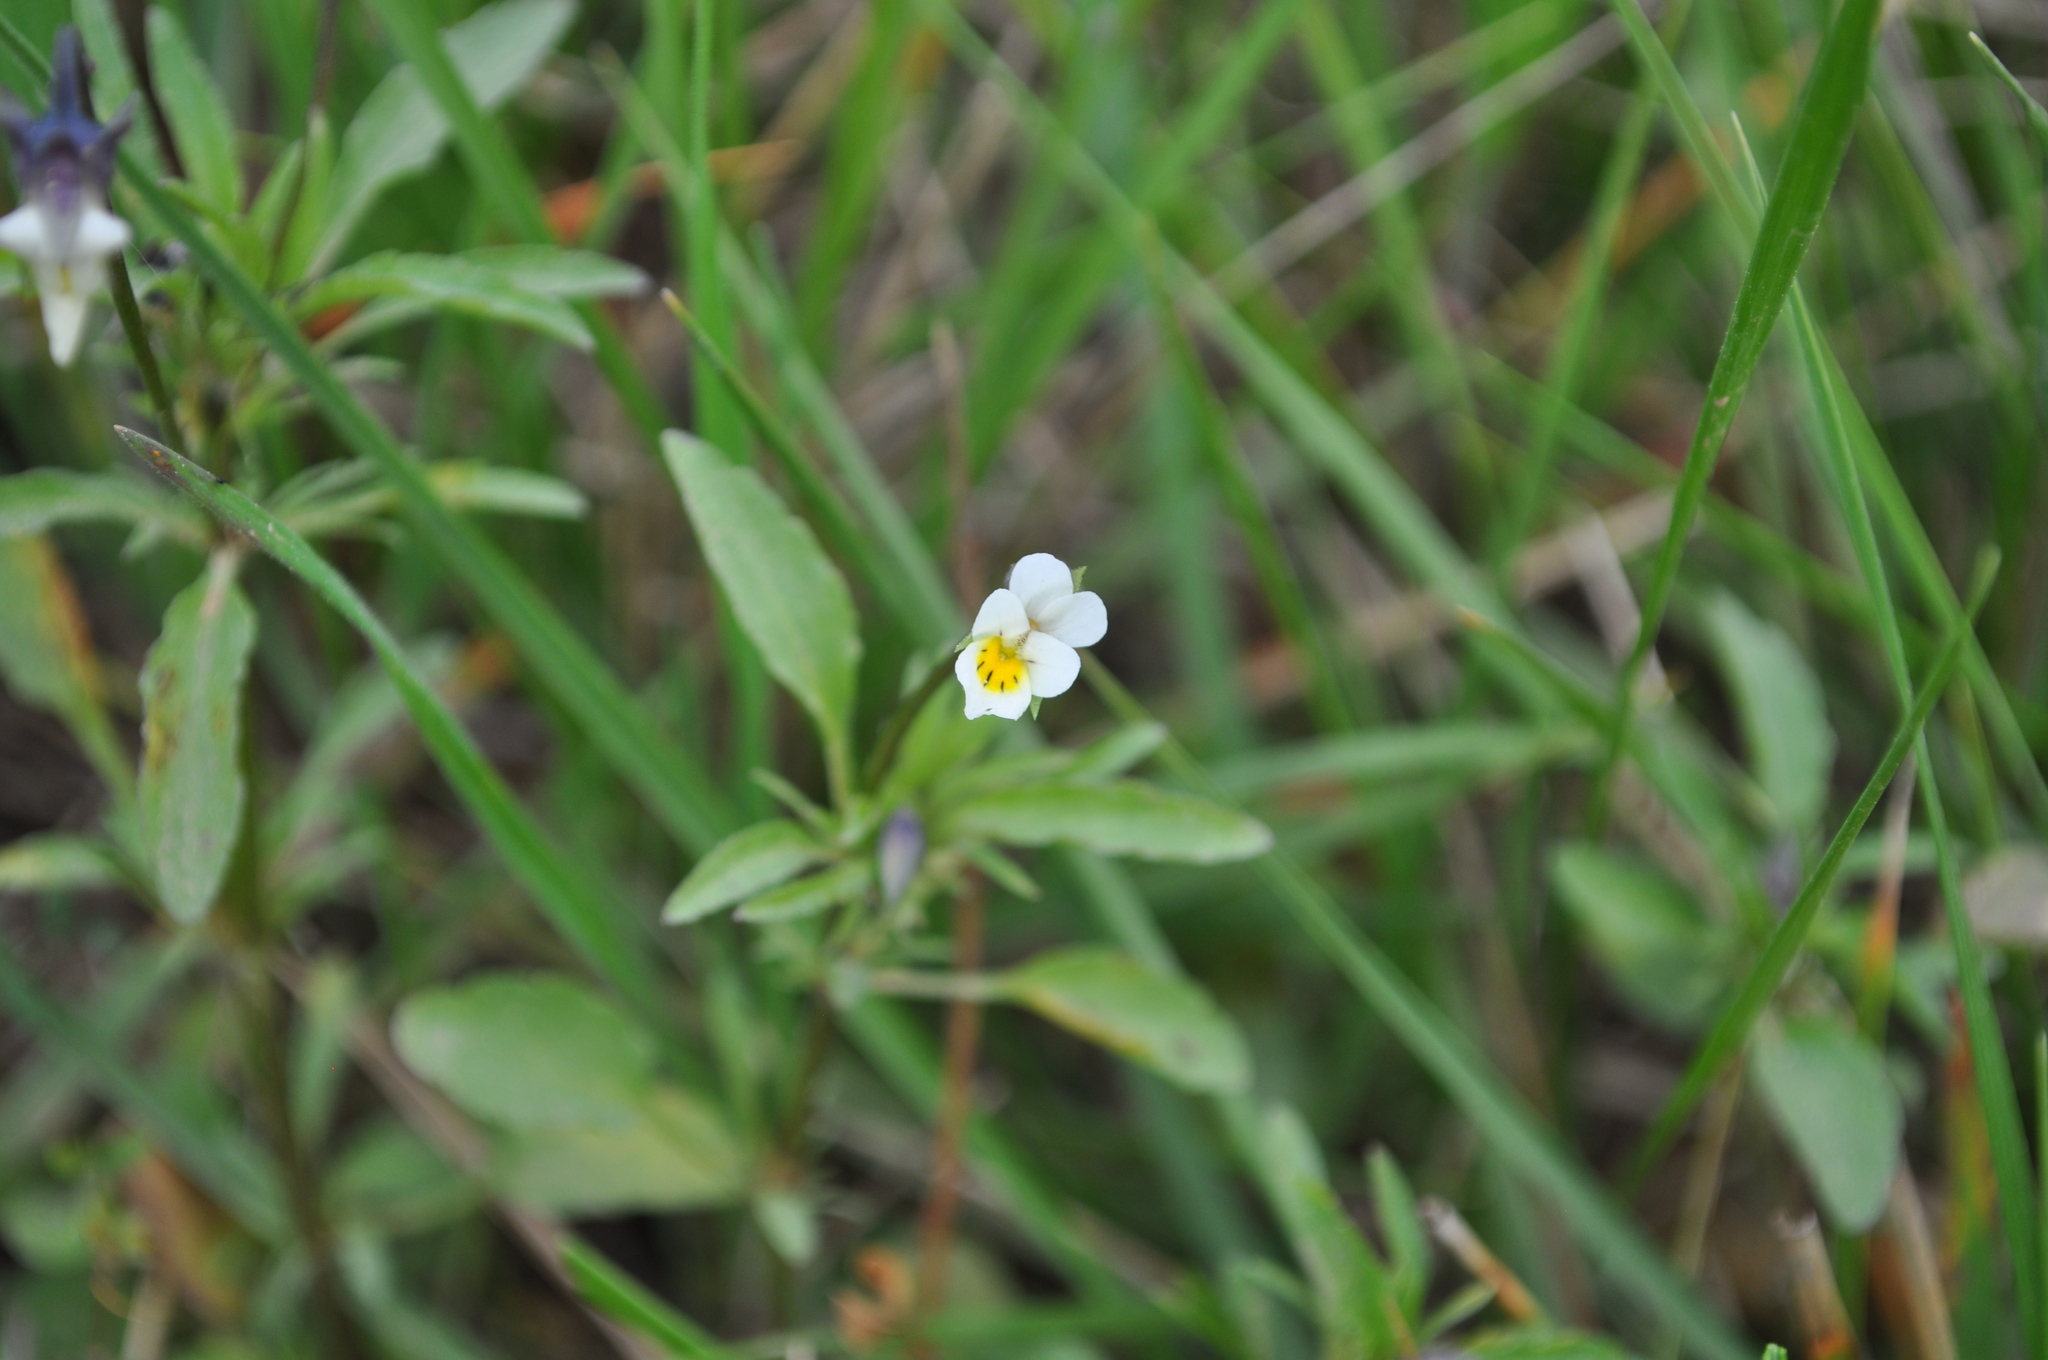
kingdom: Plantae
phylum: Tracheophyta
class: Magnoliopsida
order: Malpighiales
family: Violaceae
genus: Viola
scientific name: Viola arvensis
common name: Field pansy
